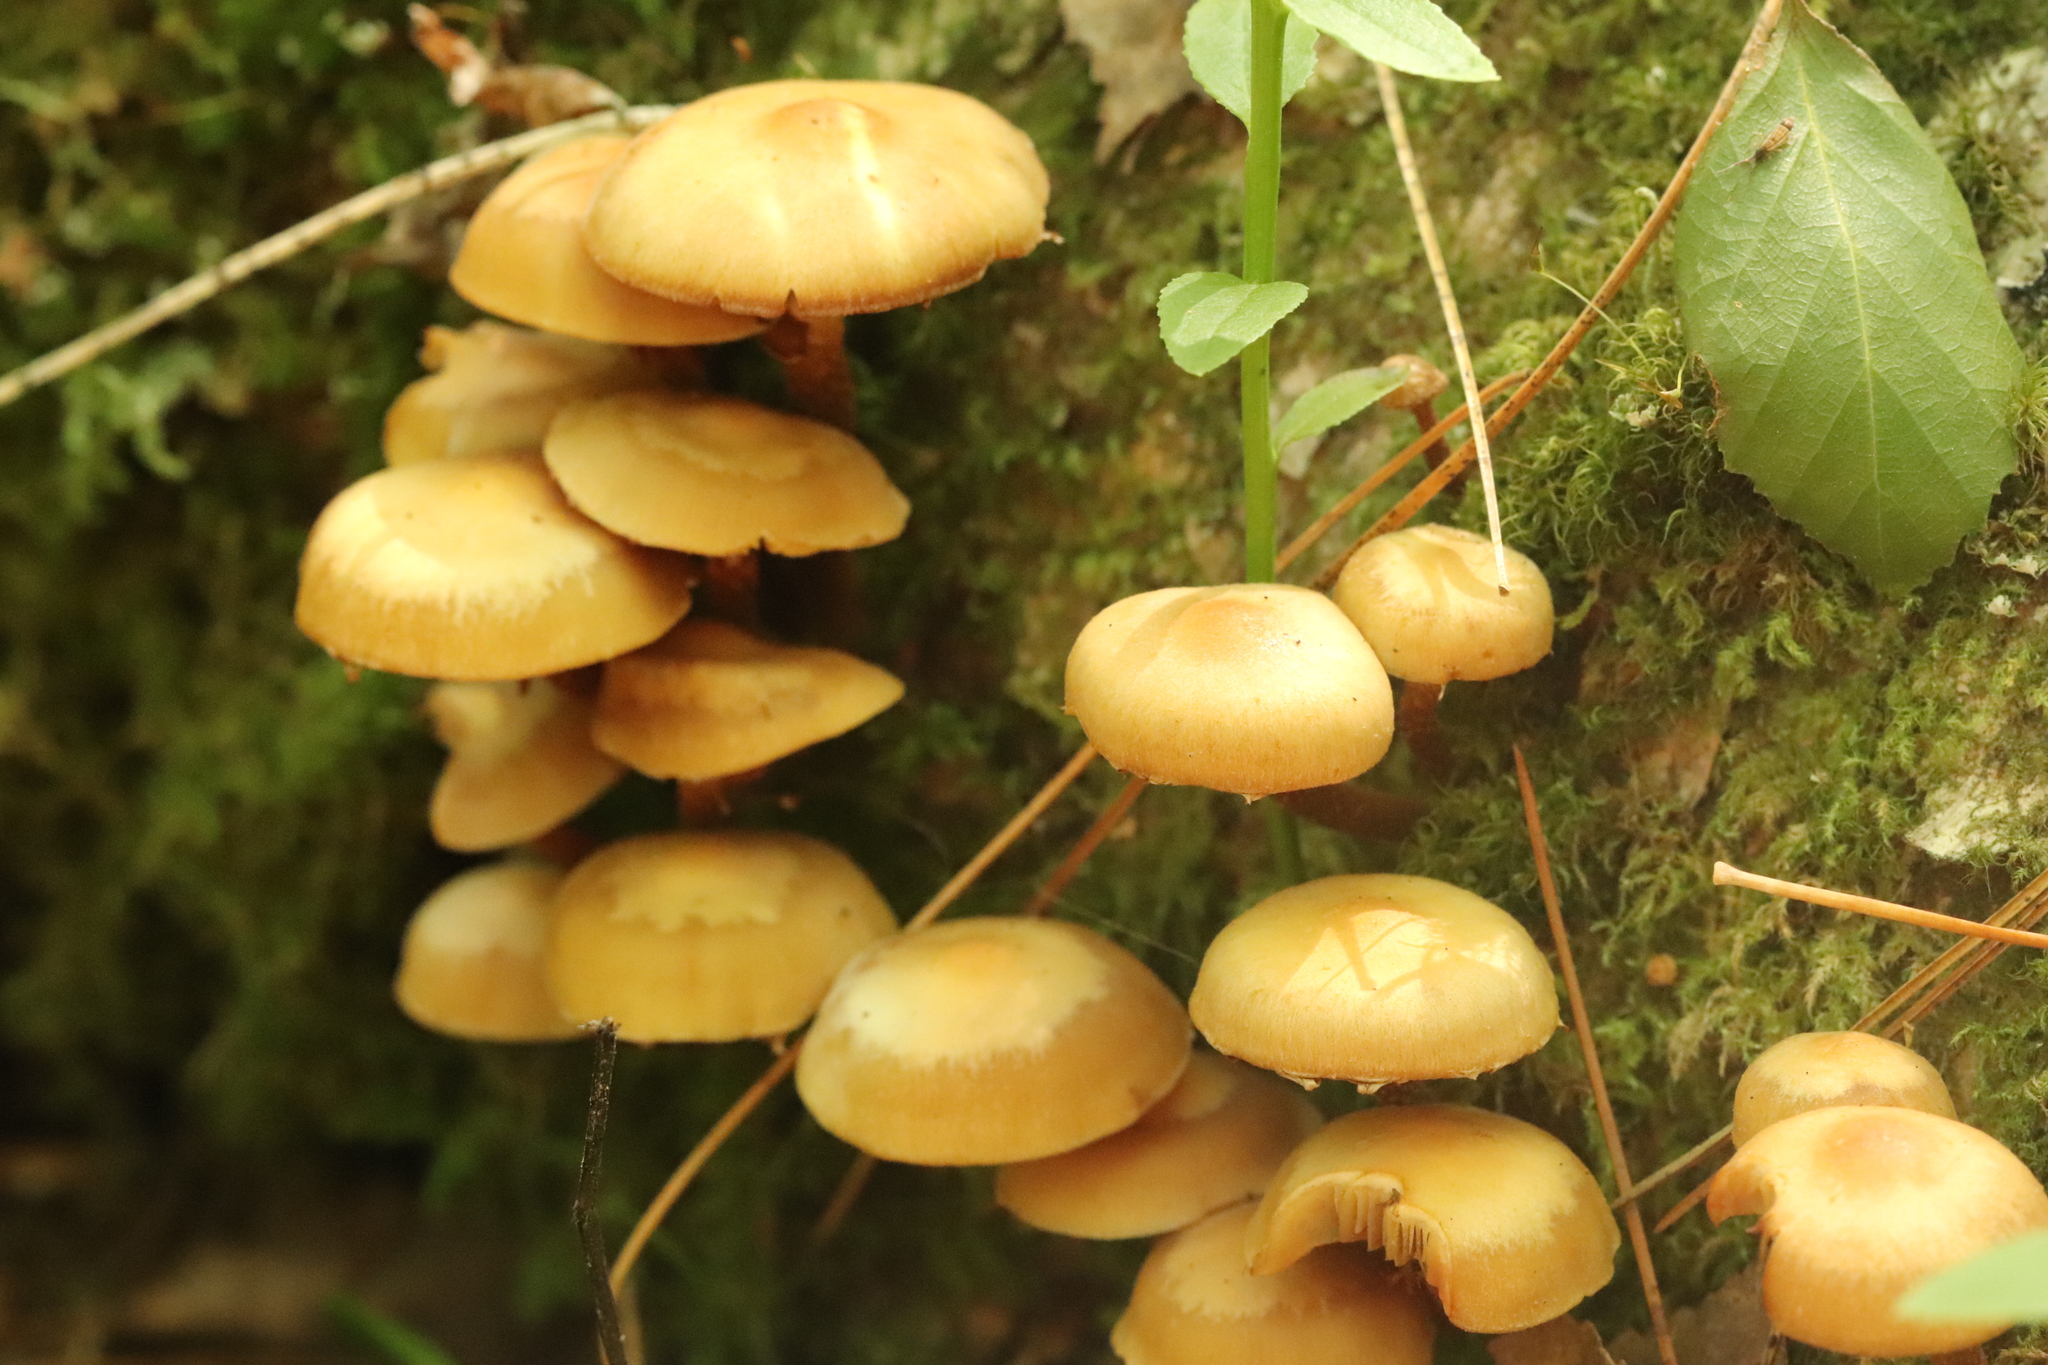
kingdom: Fungi
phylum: Basidiomycota
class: Agaricomycetes
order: Agaricales
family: Strophariaceae
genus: Kuehneromyces
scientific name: Kuehneromyces mutabilis
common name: Sheathed woodtuft
